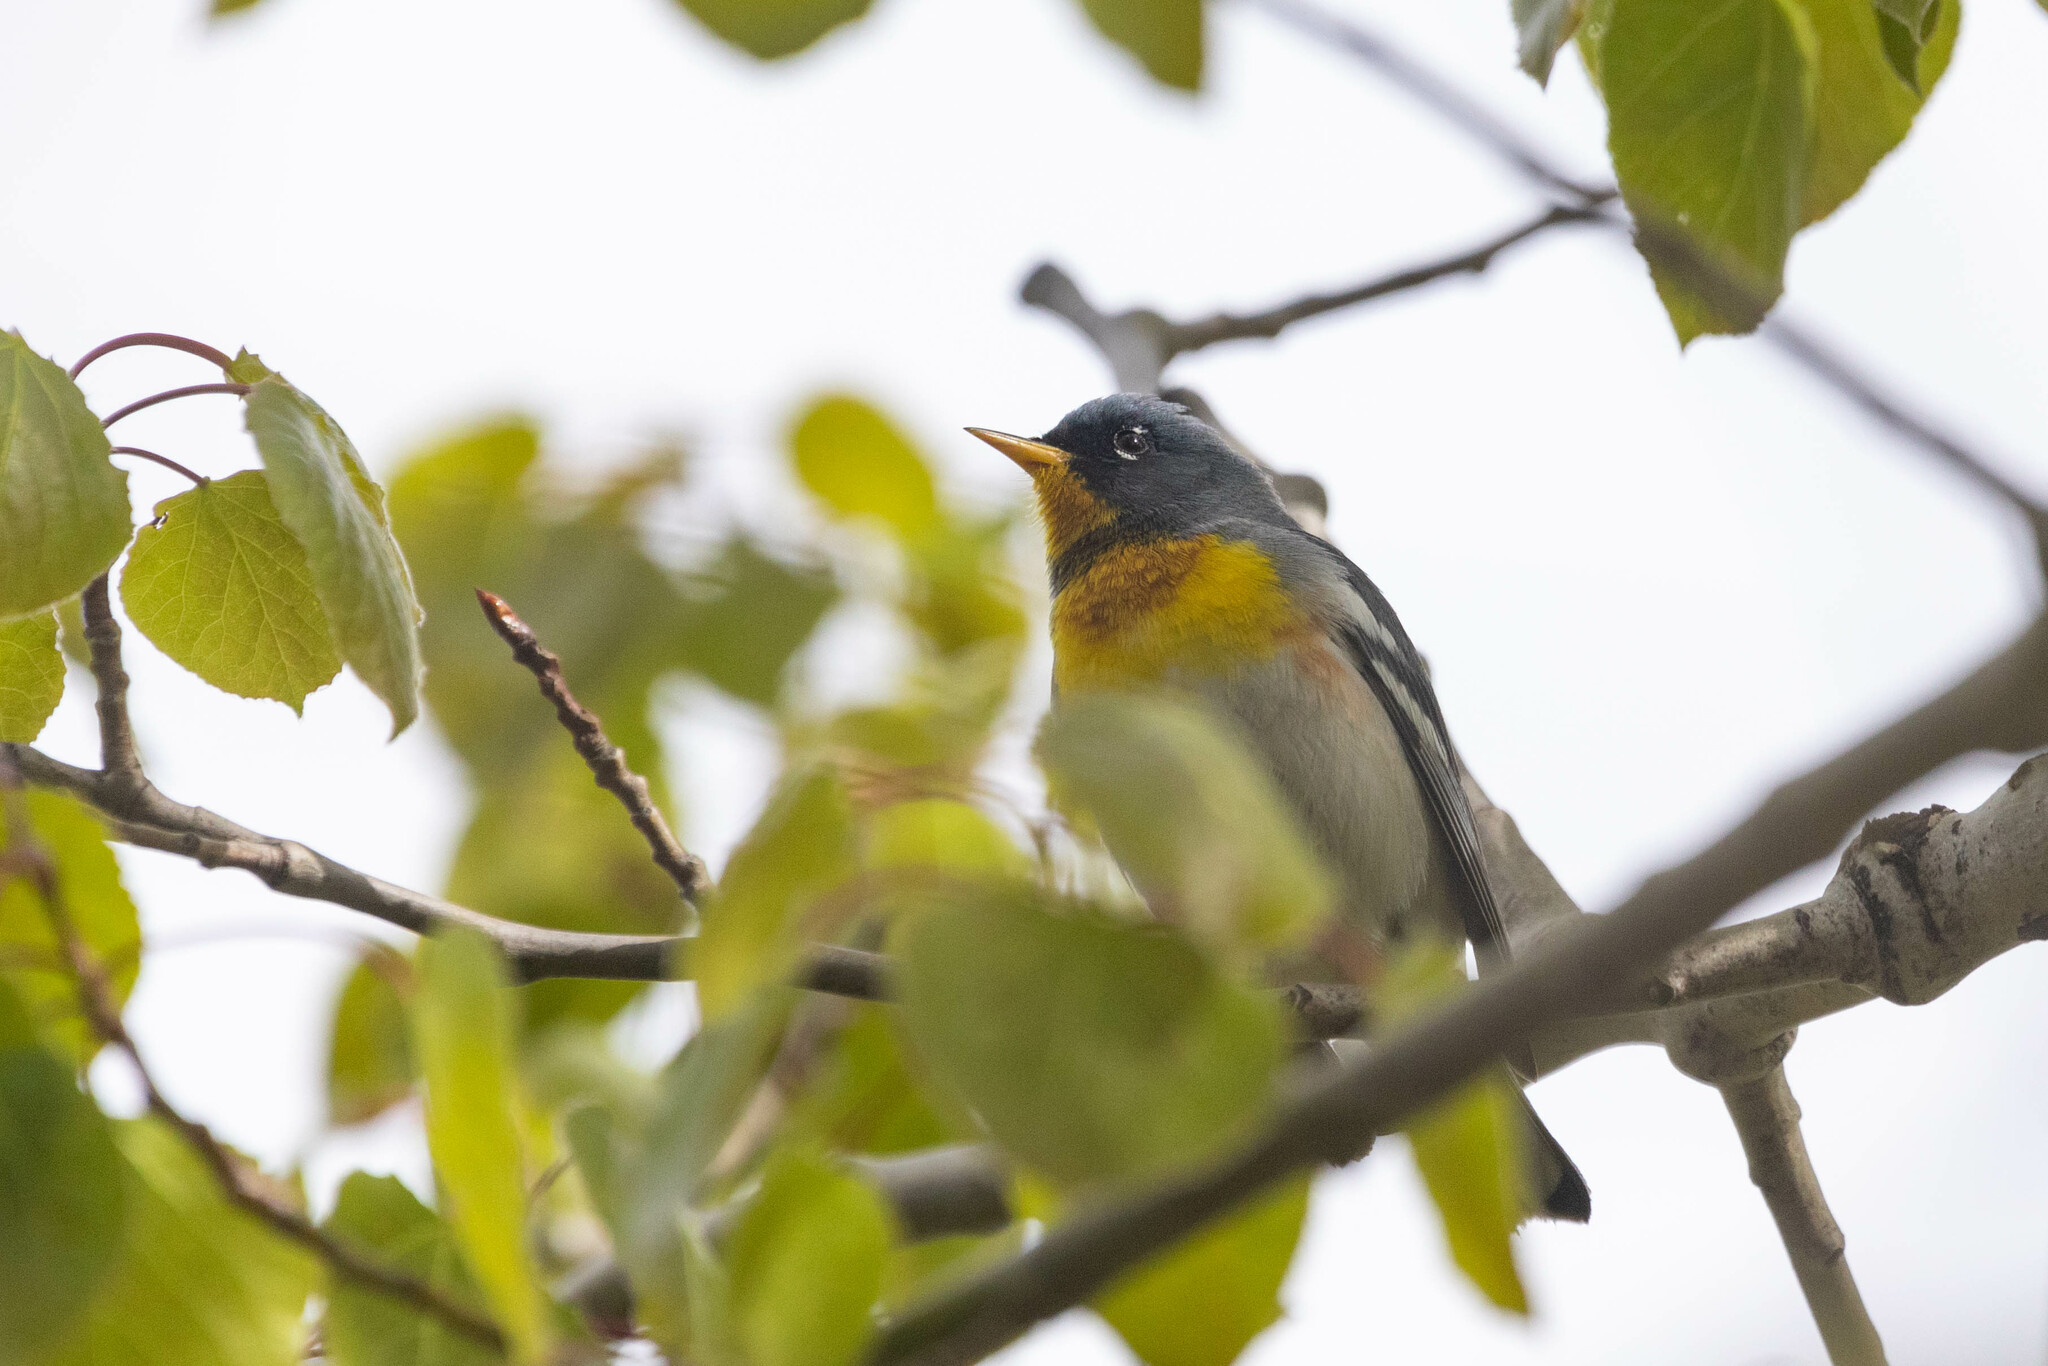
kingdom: Animalia
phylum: Chordata
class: Aves
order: Passeriformes
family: Parulidae
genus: Setophaga
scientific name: Setophaga americana
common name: Northern parula
